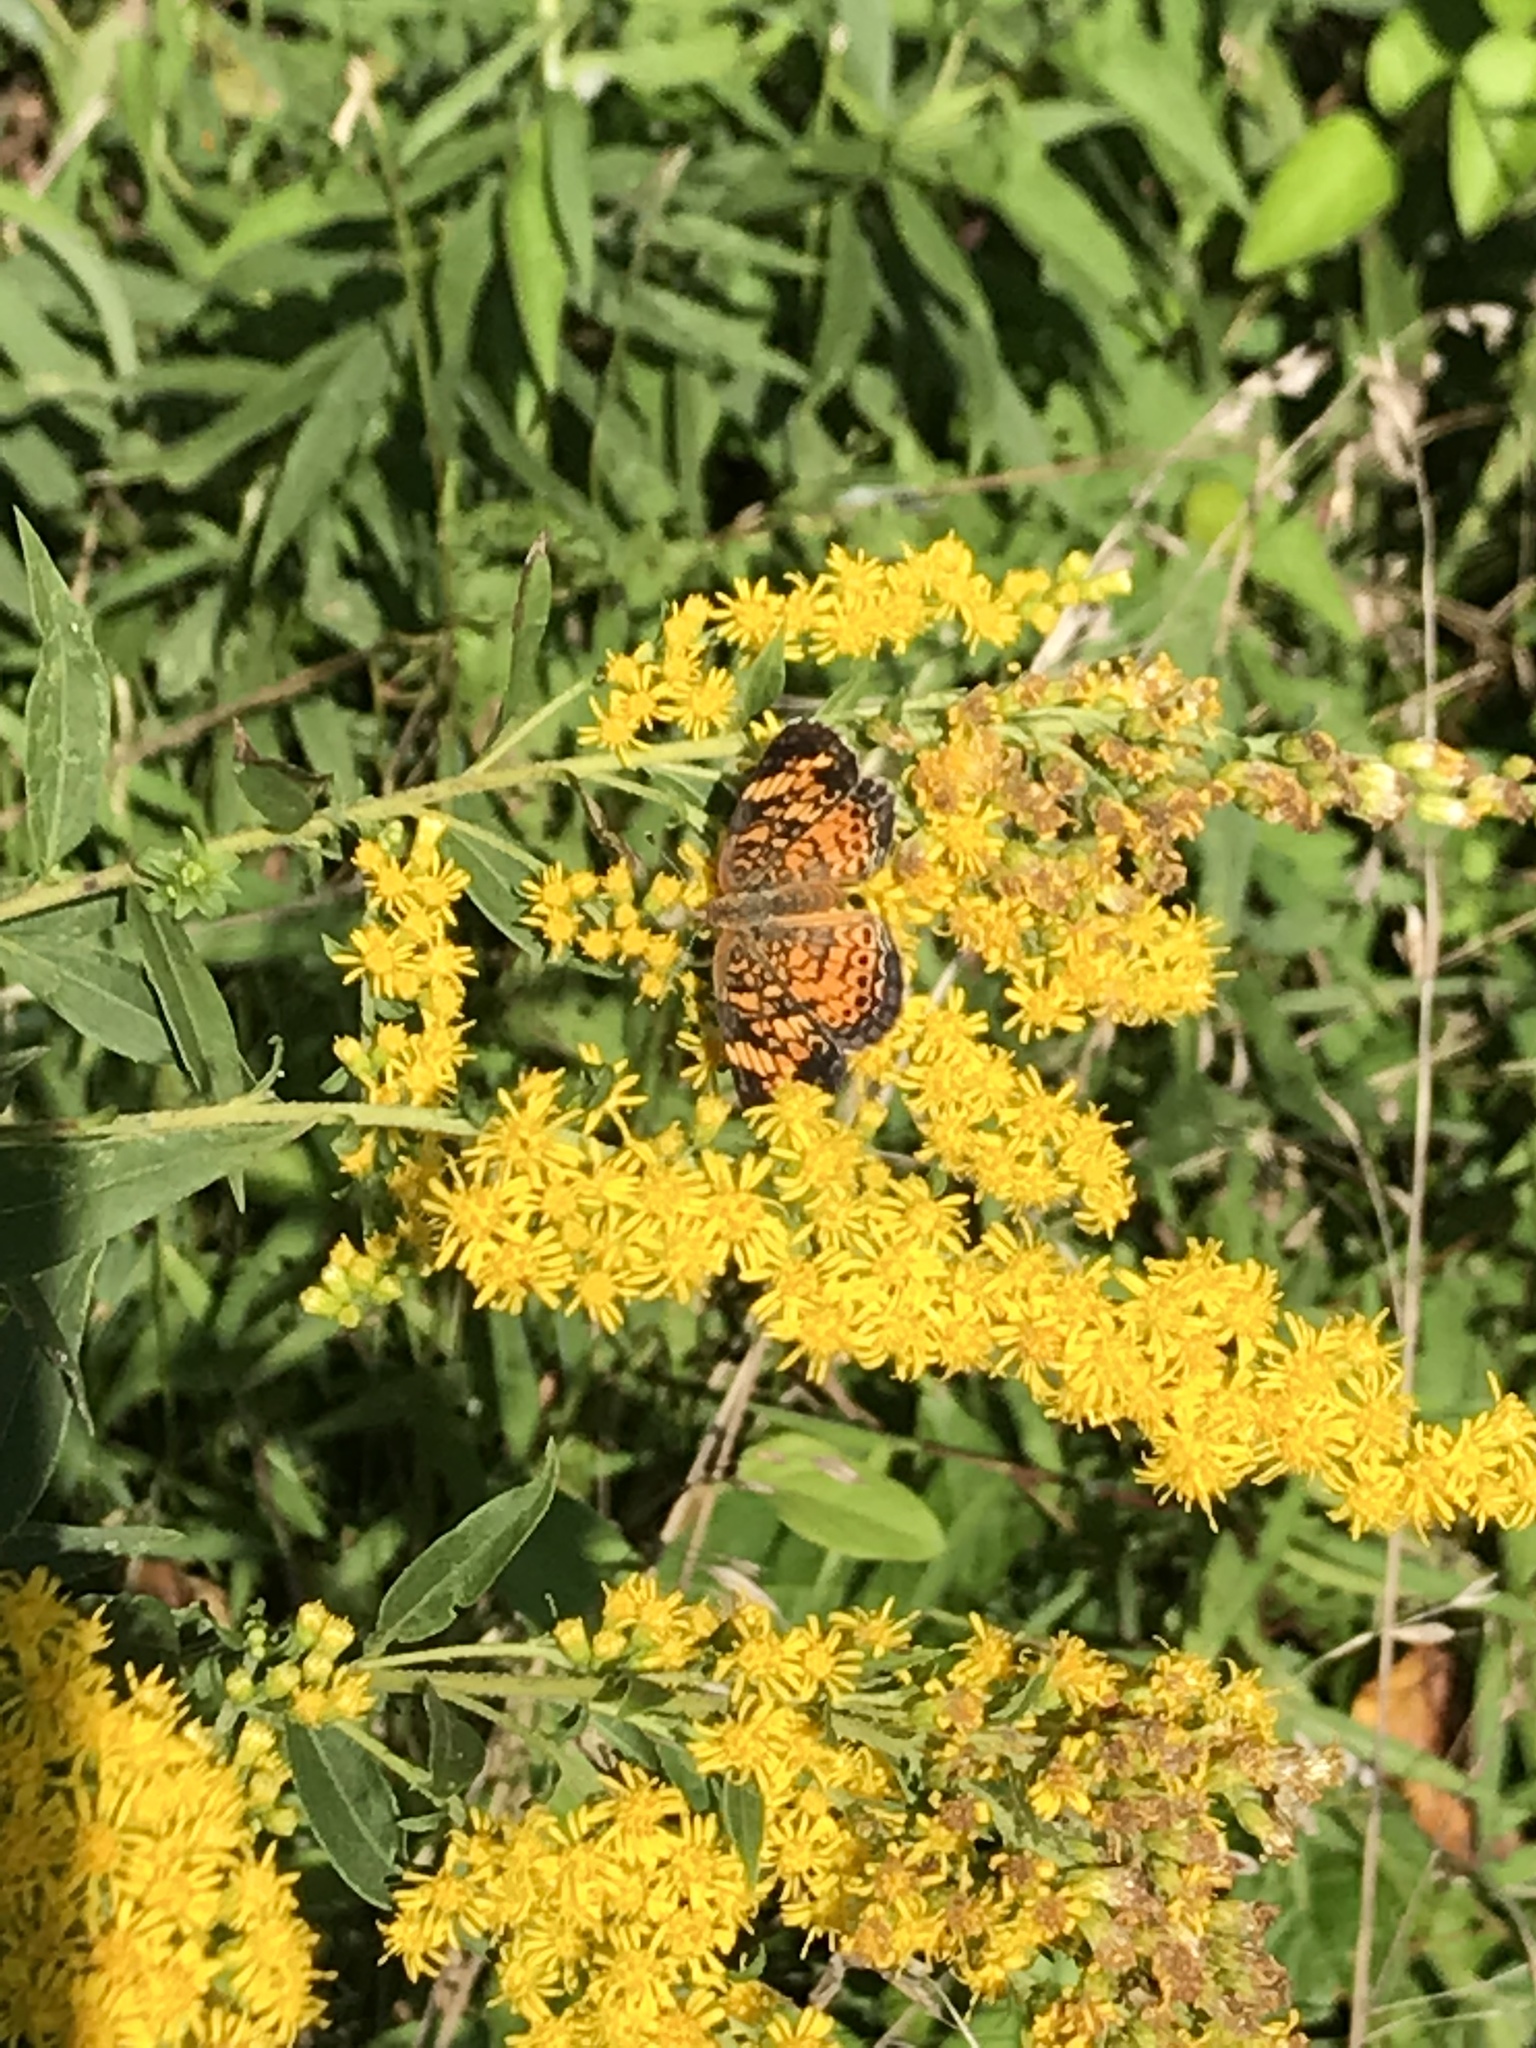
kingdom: Animalia
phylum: Arthropoda
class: Insecta
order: Lepidoptera
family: Nymphalidae
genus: Phyciodes
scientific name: Phyciodes tharos
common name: Pearl crescent
